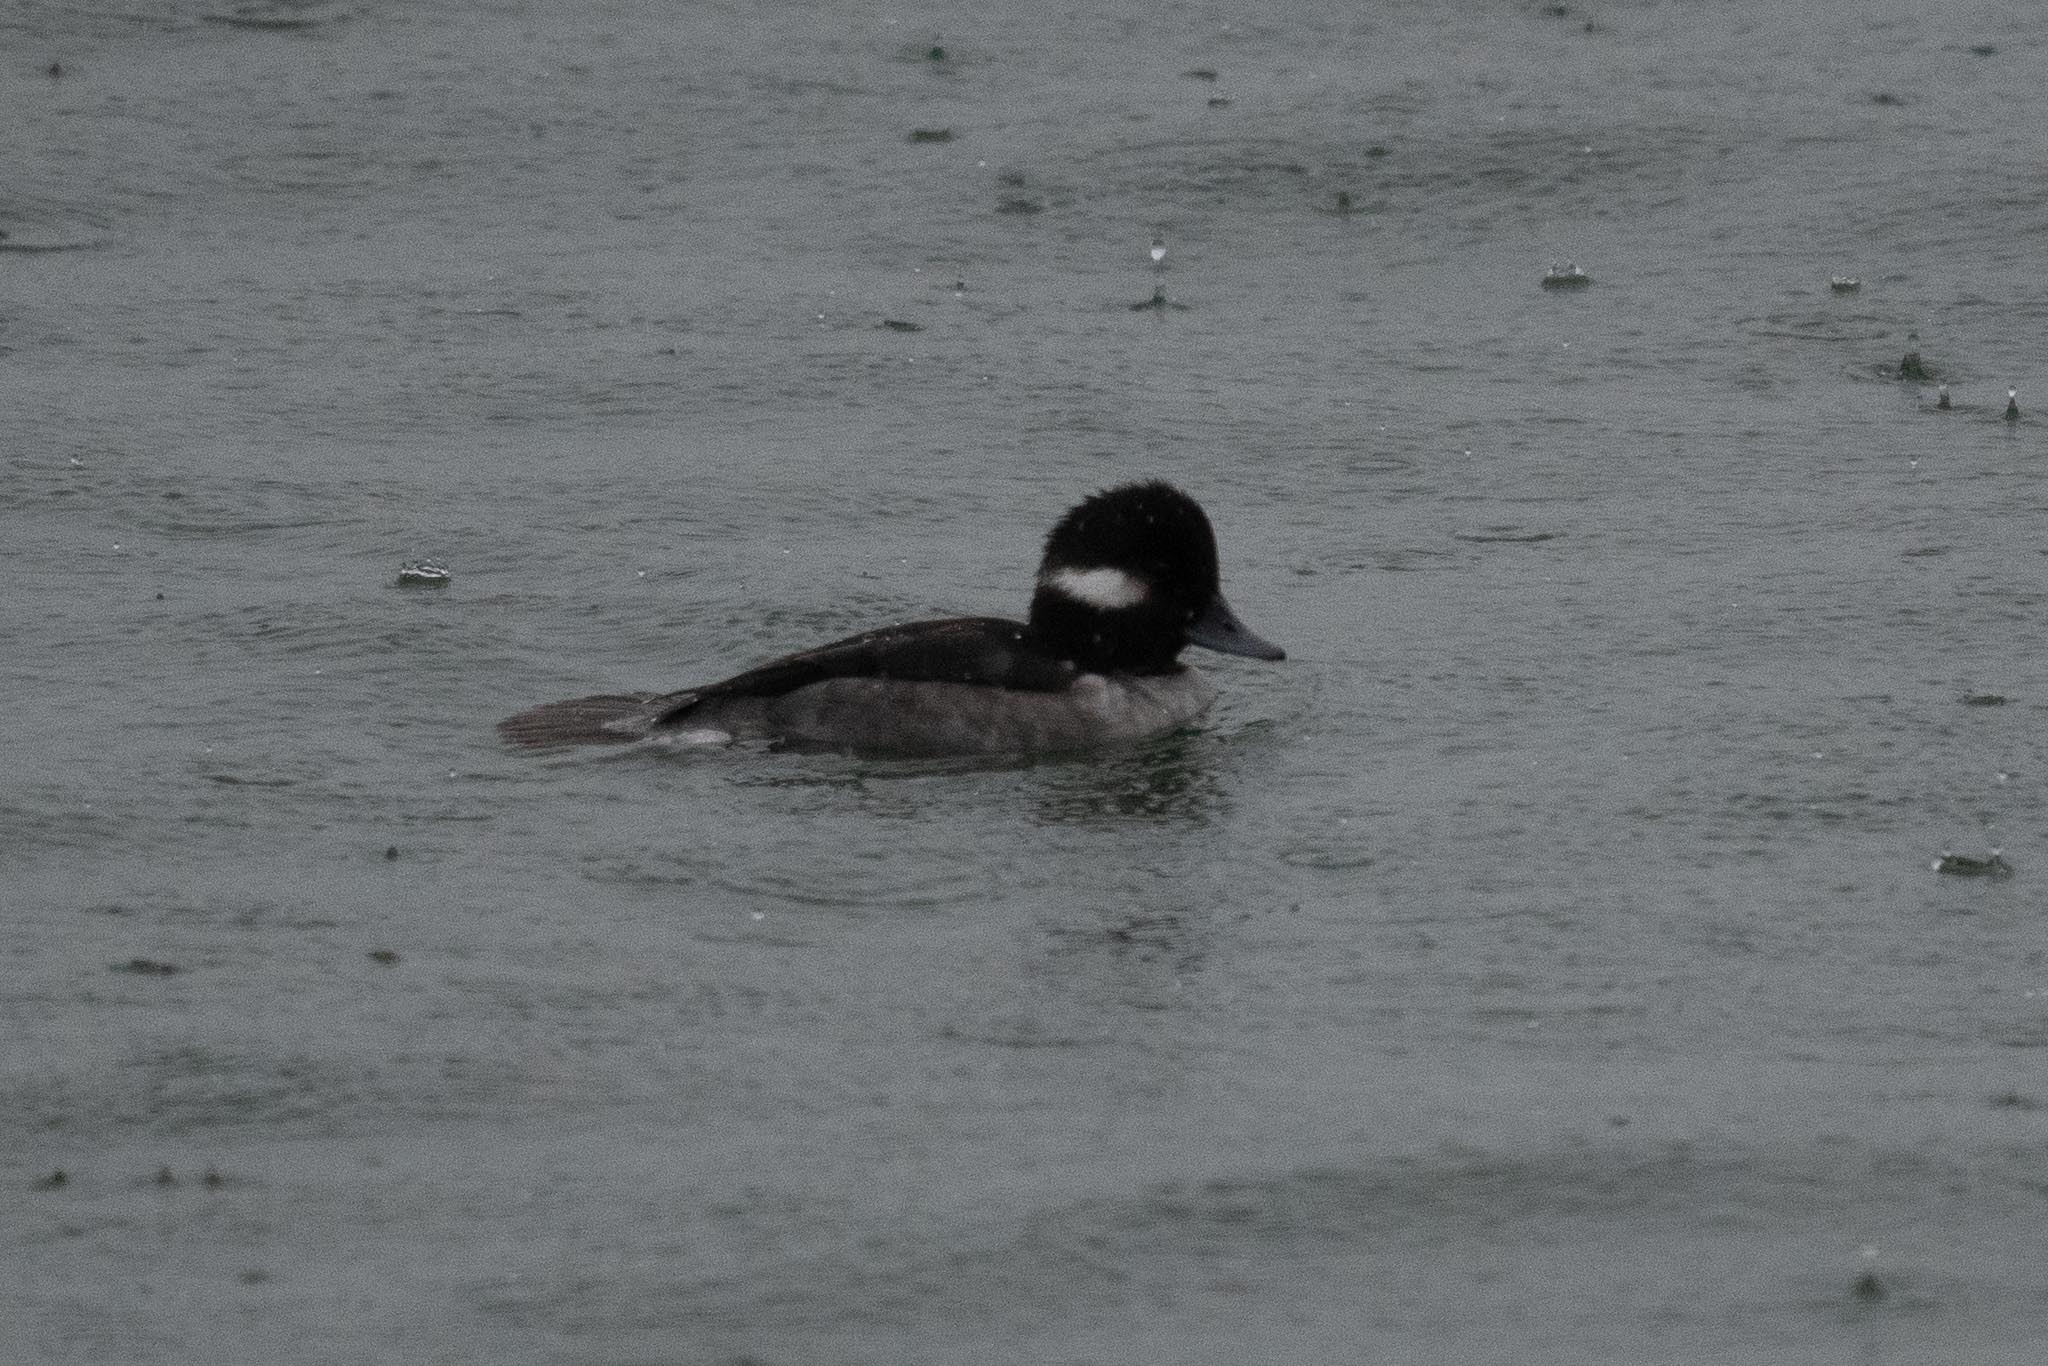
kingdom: Animalia
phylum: Chordata
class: Aves
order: Anseriformes
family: Anatidae
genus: Bucephala
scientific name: Bucephala albeola
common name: Bufflehead
